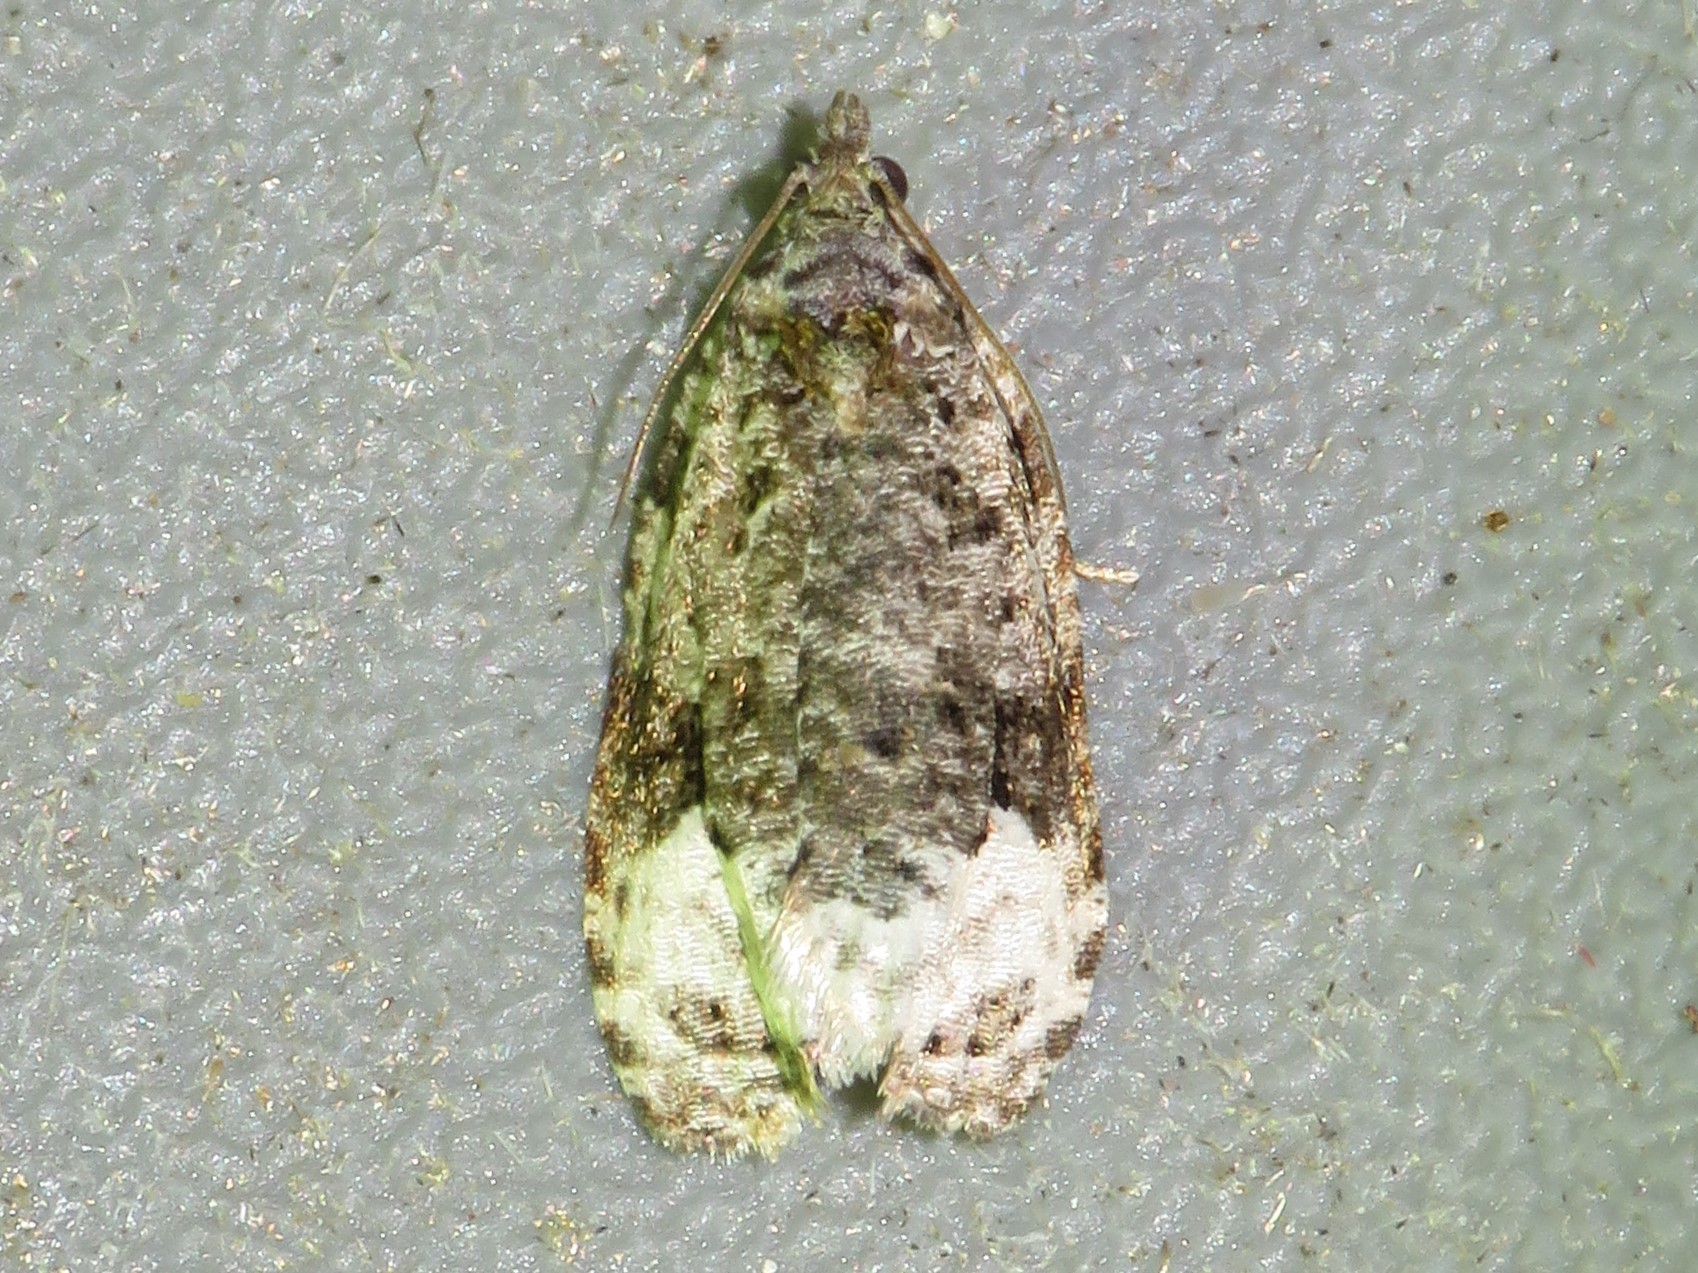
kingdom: Animalia
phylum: Arthropoda
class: Insecta
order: Lepidoptera
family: Tortricidae
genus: Hedya
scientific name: Hedya nubiferana
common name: Marbled orchard tortrix
